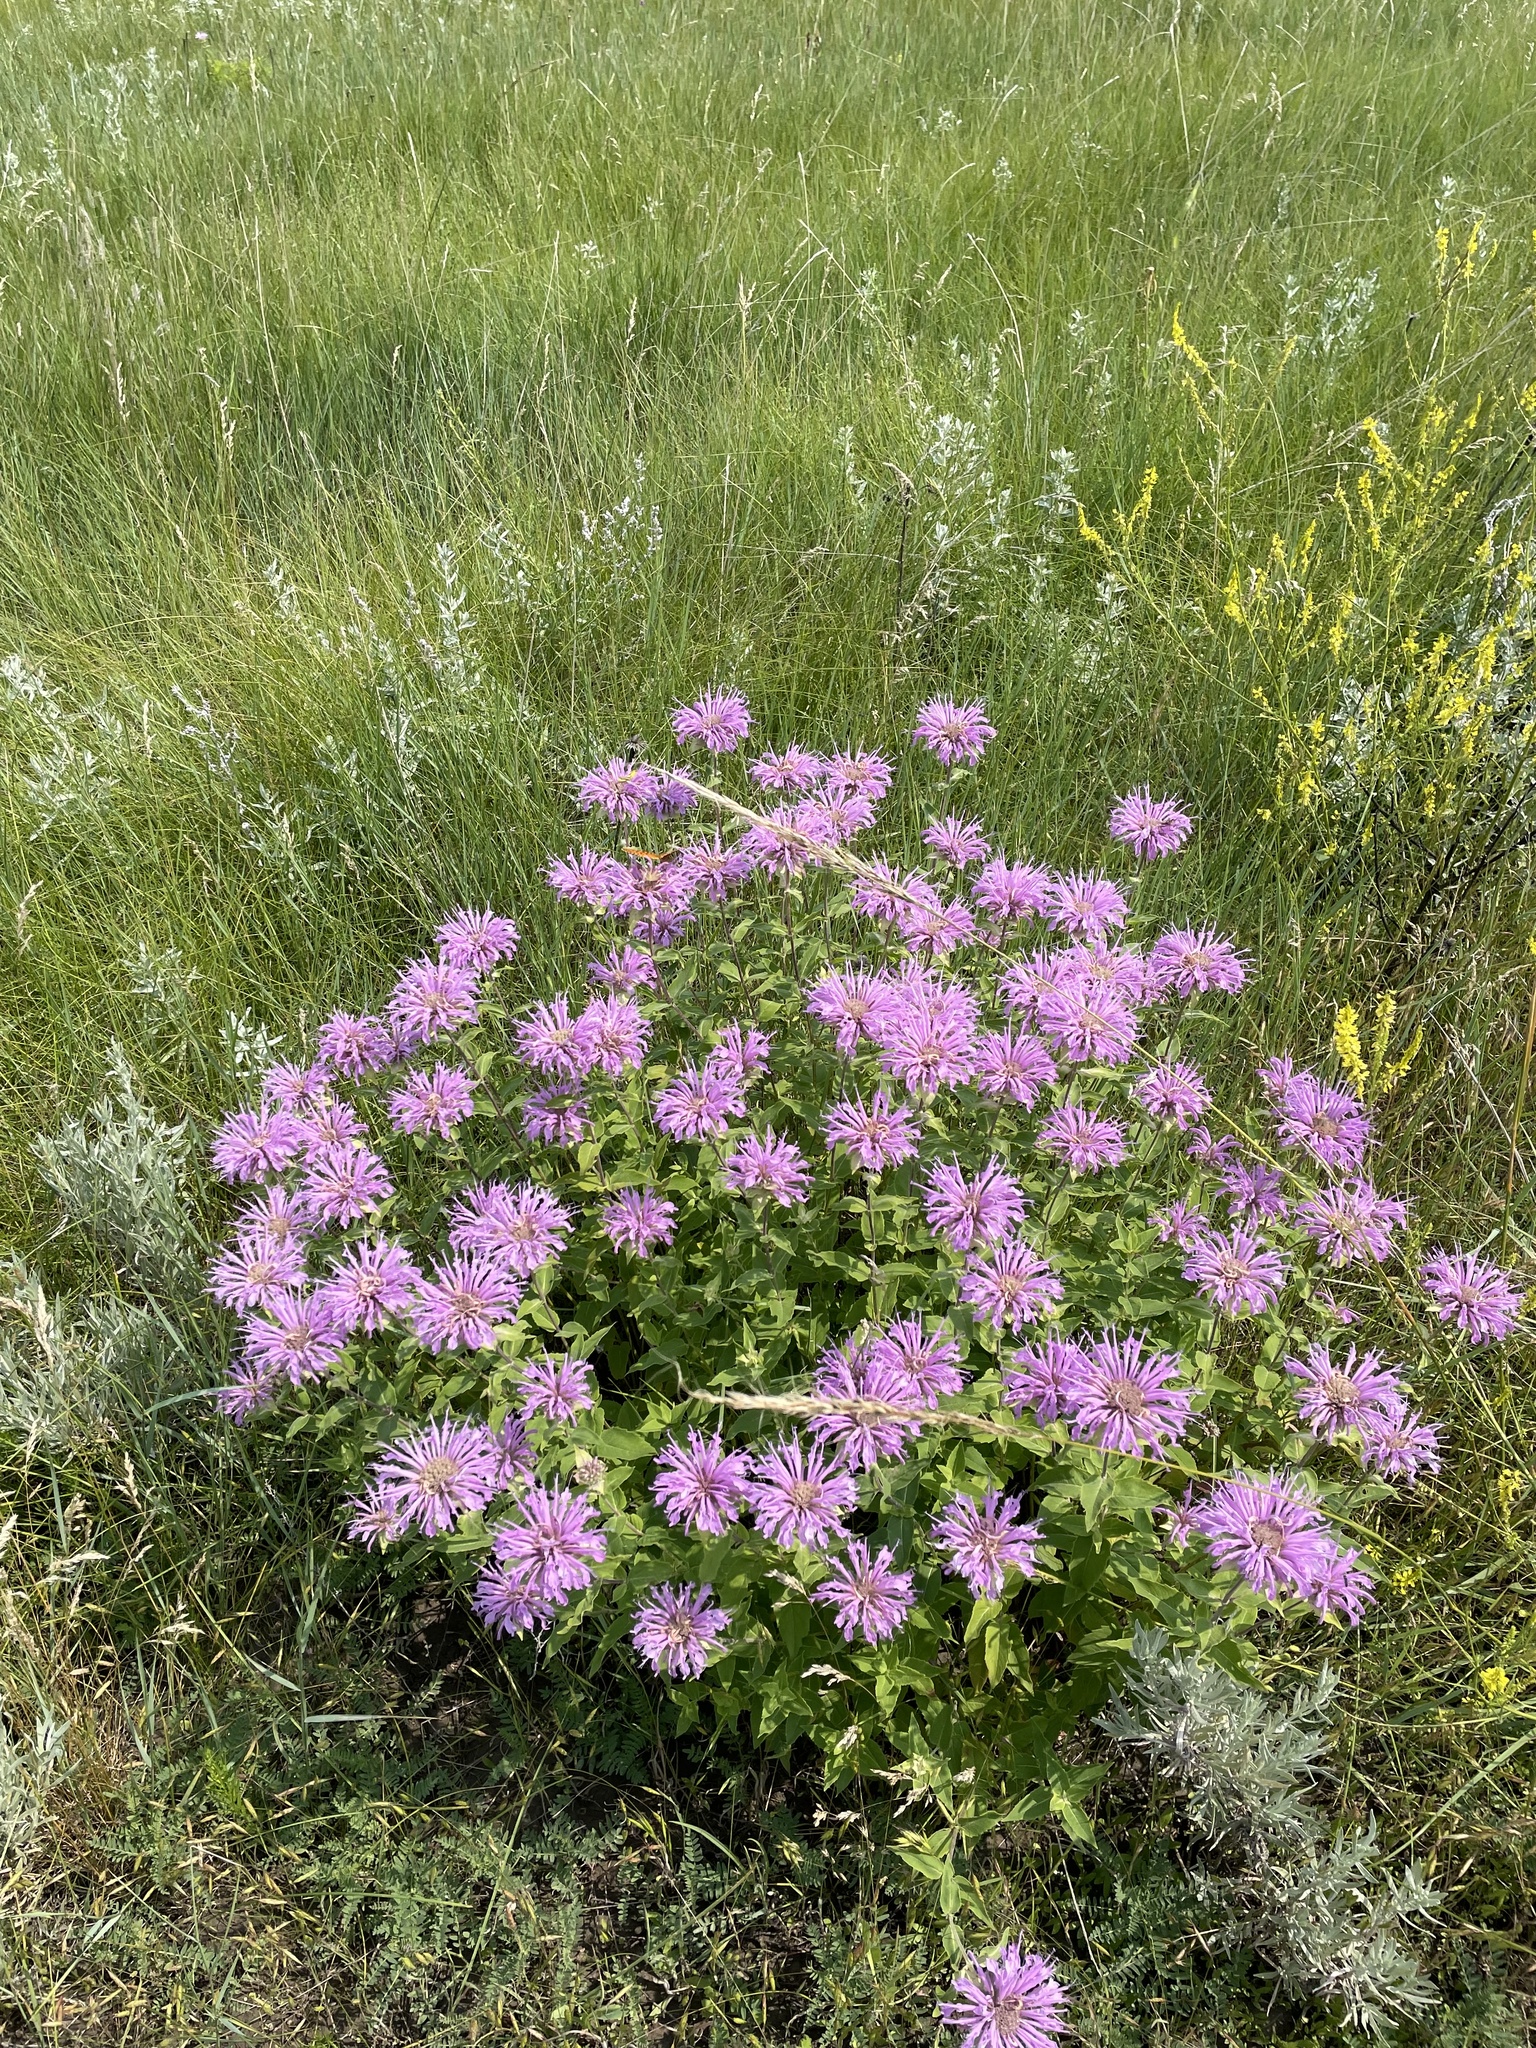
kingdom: Plantae
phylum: Tracheophyta
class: Magnoliopsida
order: Lamiales
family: Lamiaceae
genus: Monarda
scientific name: Monarda fistulosa
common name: Purple beebalm
